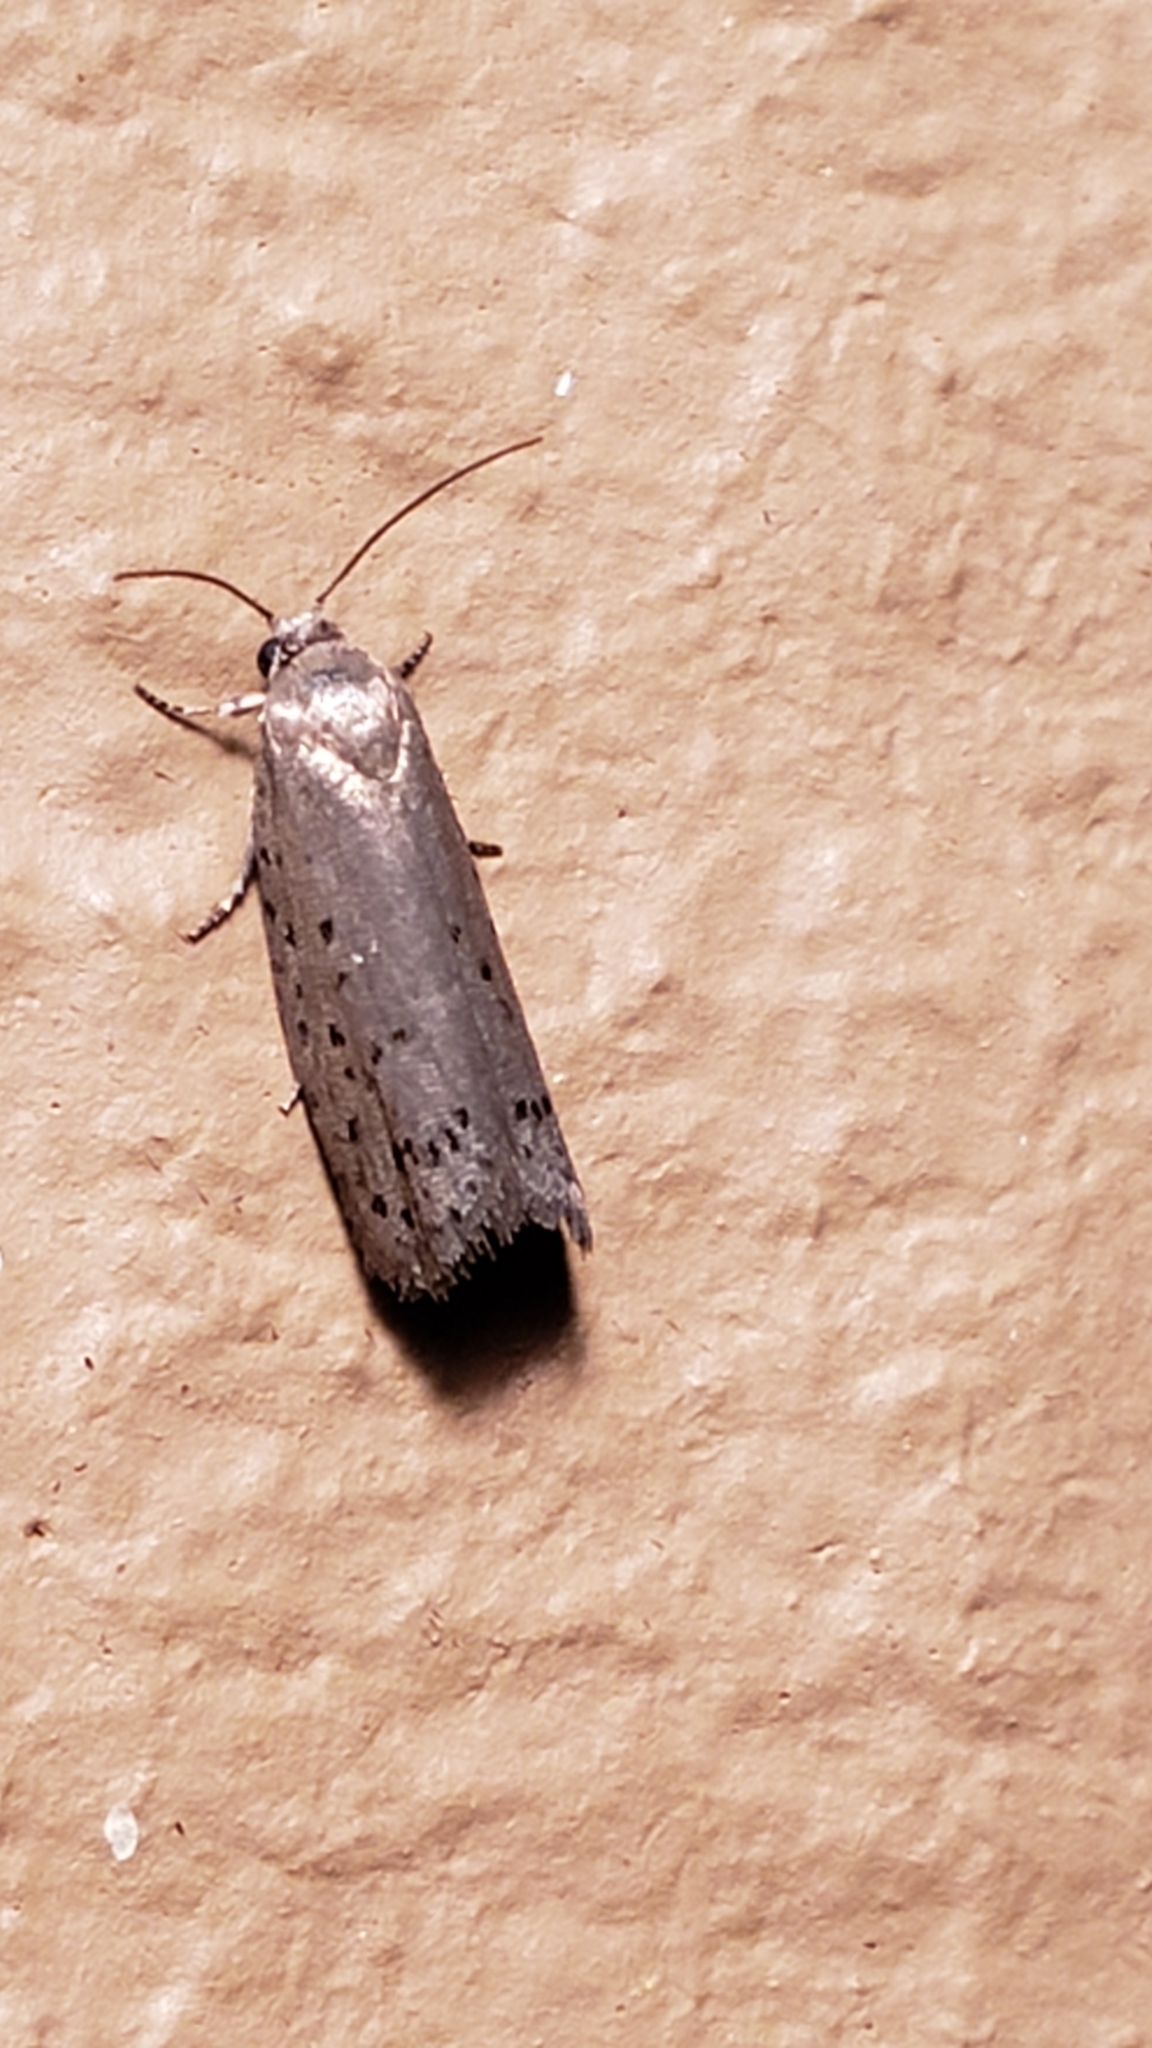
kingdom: Animalia
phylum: Arthropoda
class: Insecta
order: Lepidoptera
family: Galacticidae
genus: Homadaula
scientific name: Homadaula anisocentra
